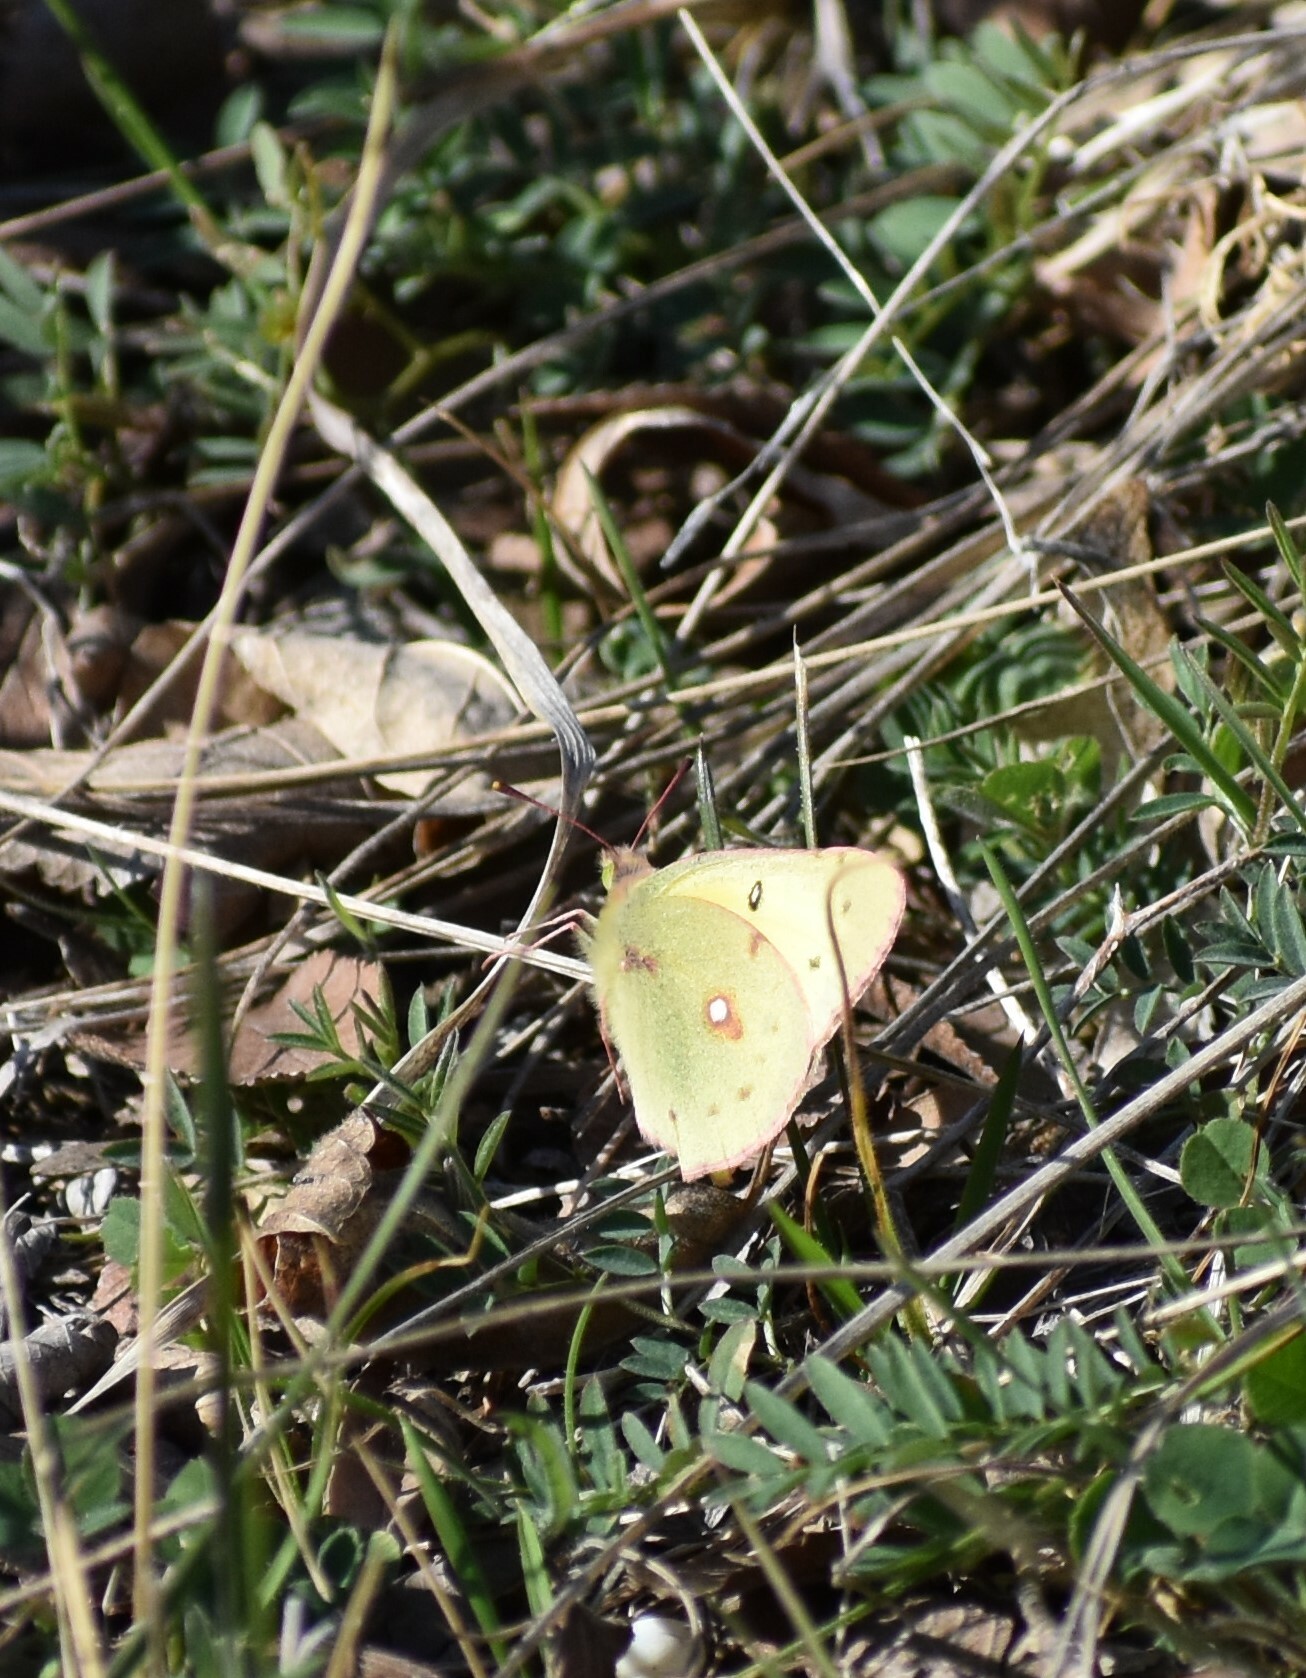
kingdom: Animalia
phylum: Arthropoda
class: Insecta
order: Lepidoptera
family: Pieridae
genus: Colias
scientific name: Colias eurytheme
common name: Alfalfa butterfly
